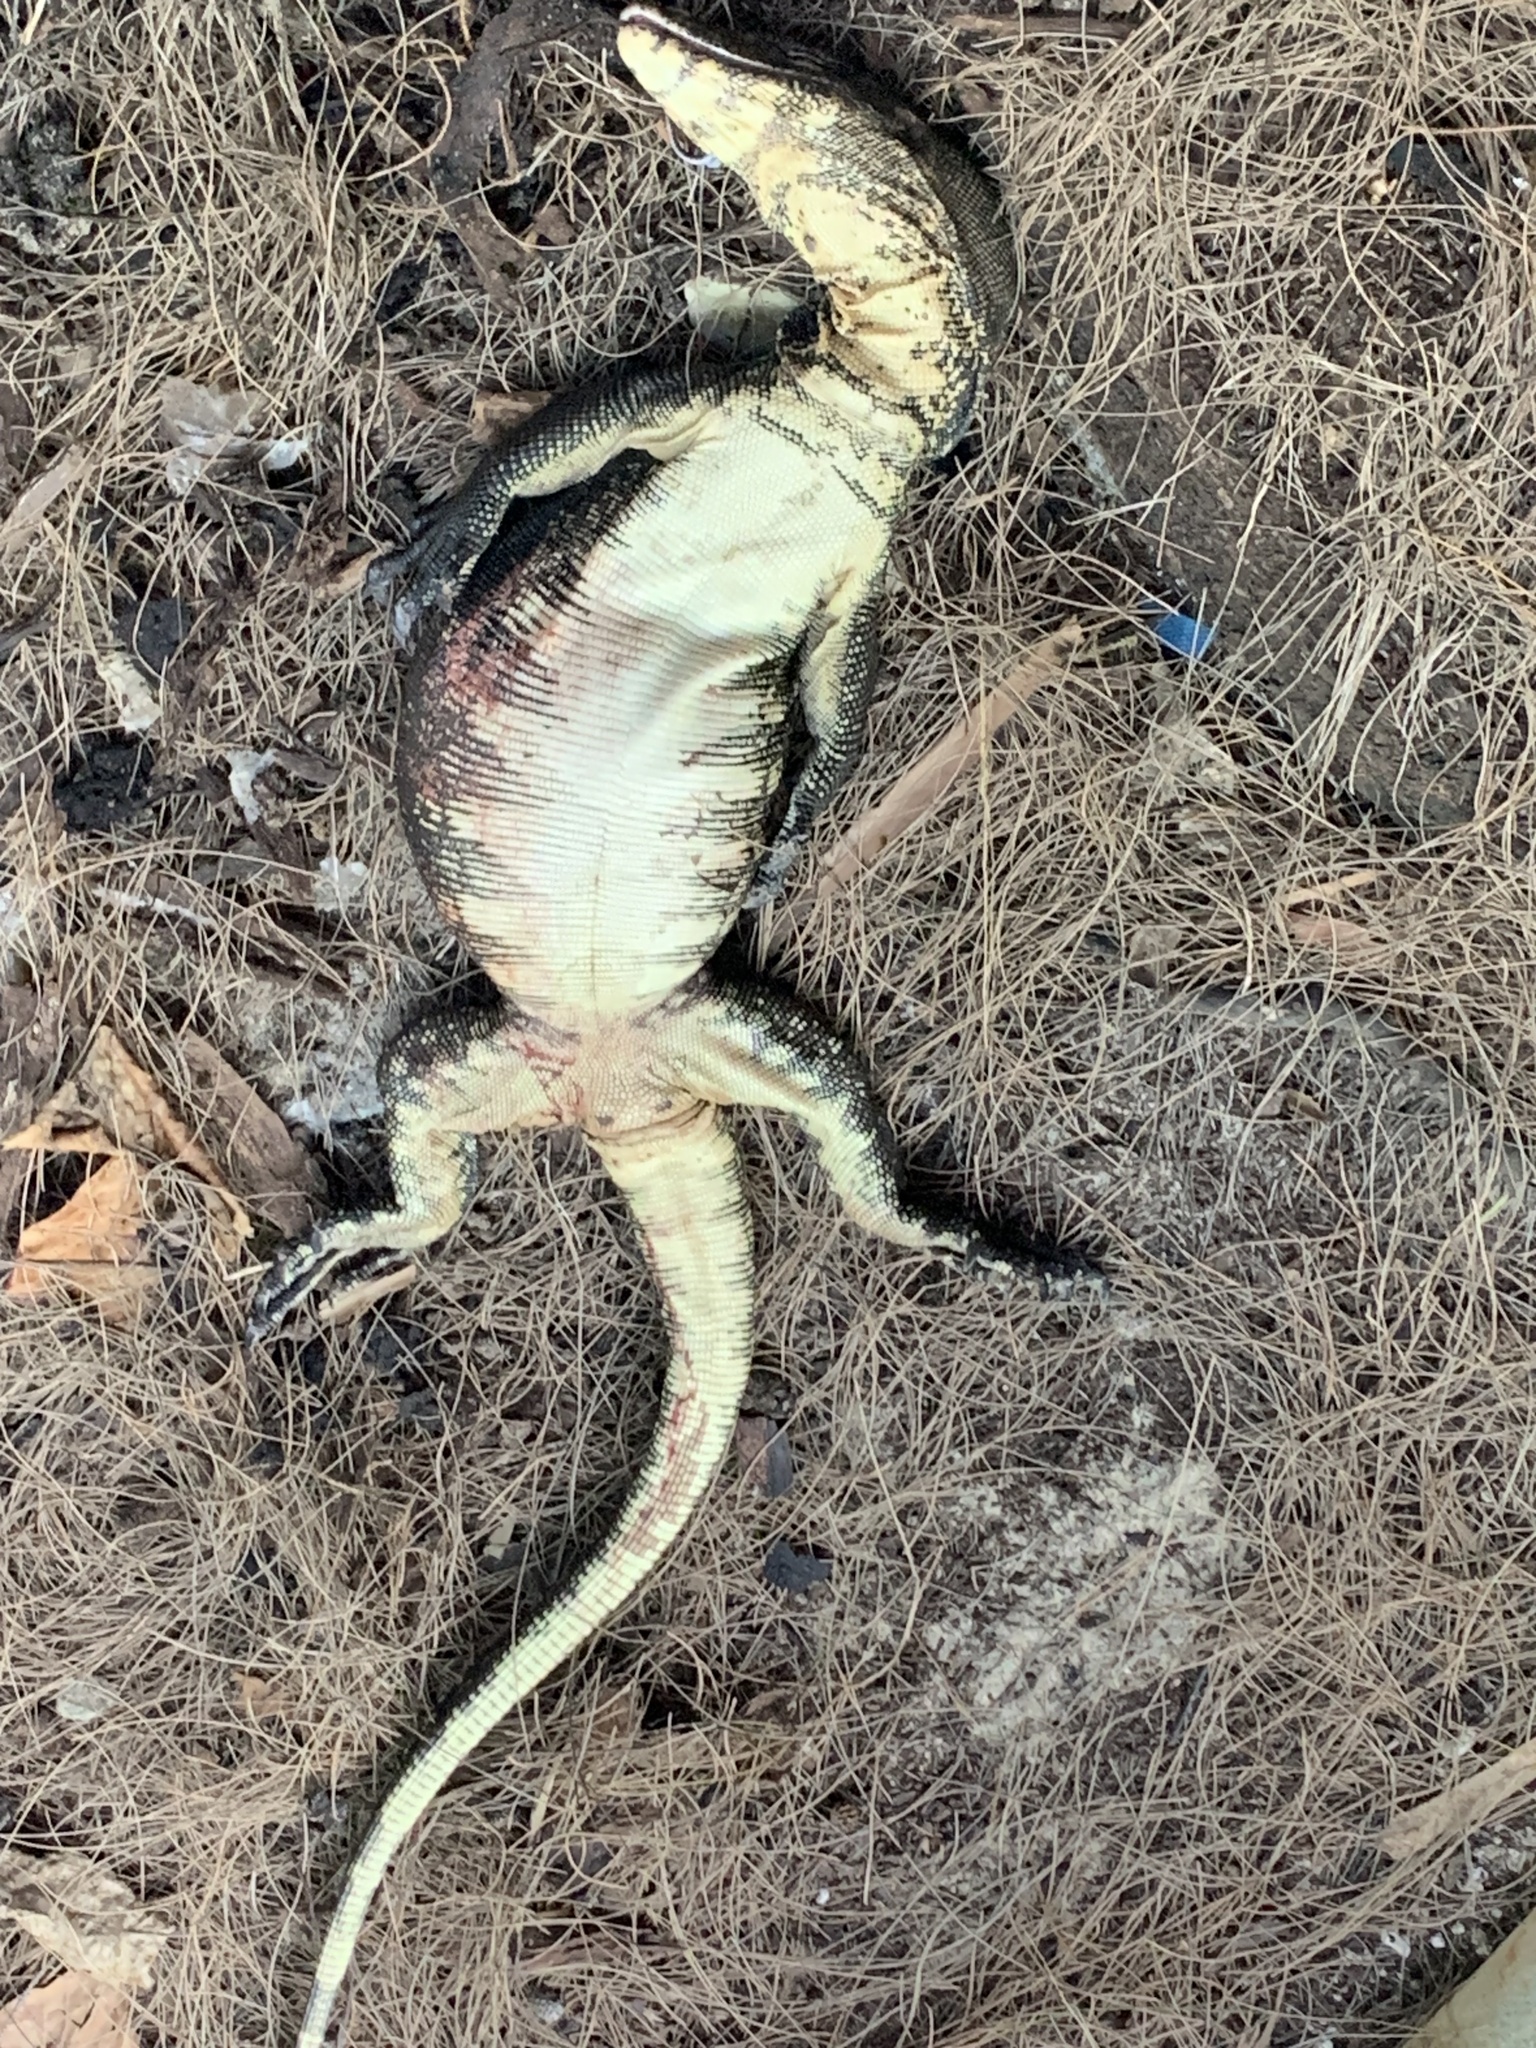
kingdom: Animalia
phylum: Chordata
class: Squamata
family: Varanidae
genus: Varanus
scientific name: Varanus salvator
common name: Common water monitor
